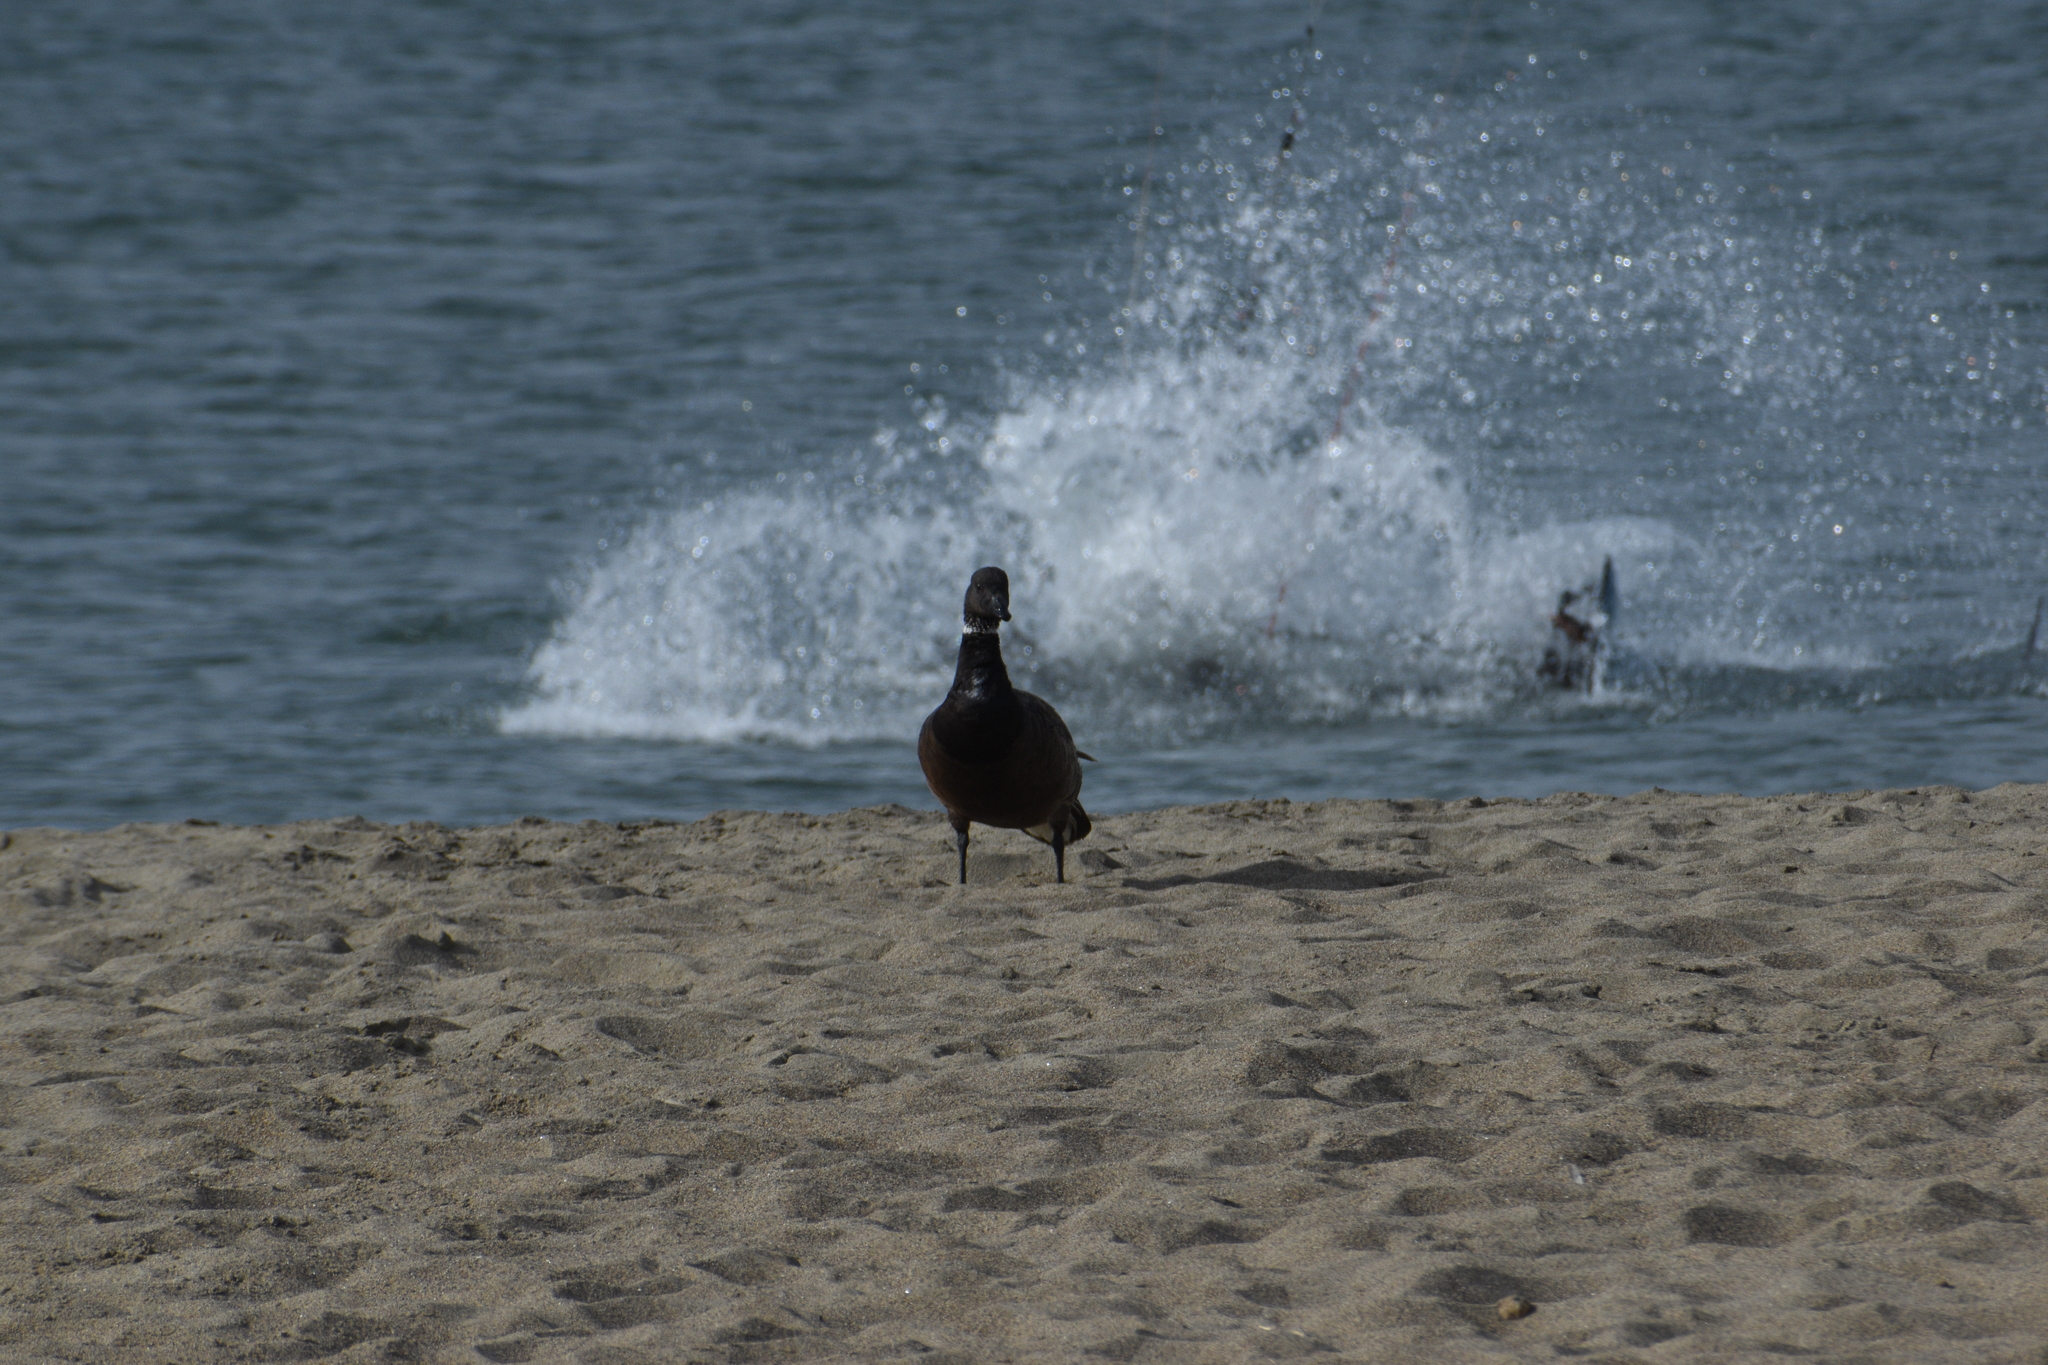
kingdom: Animalia
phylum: Chordata
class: Aves
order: Anseriformes
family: Anatidae
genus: Branta
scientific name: Branta bernicla
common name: Brant goose
